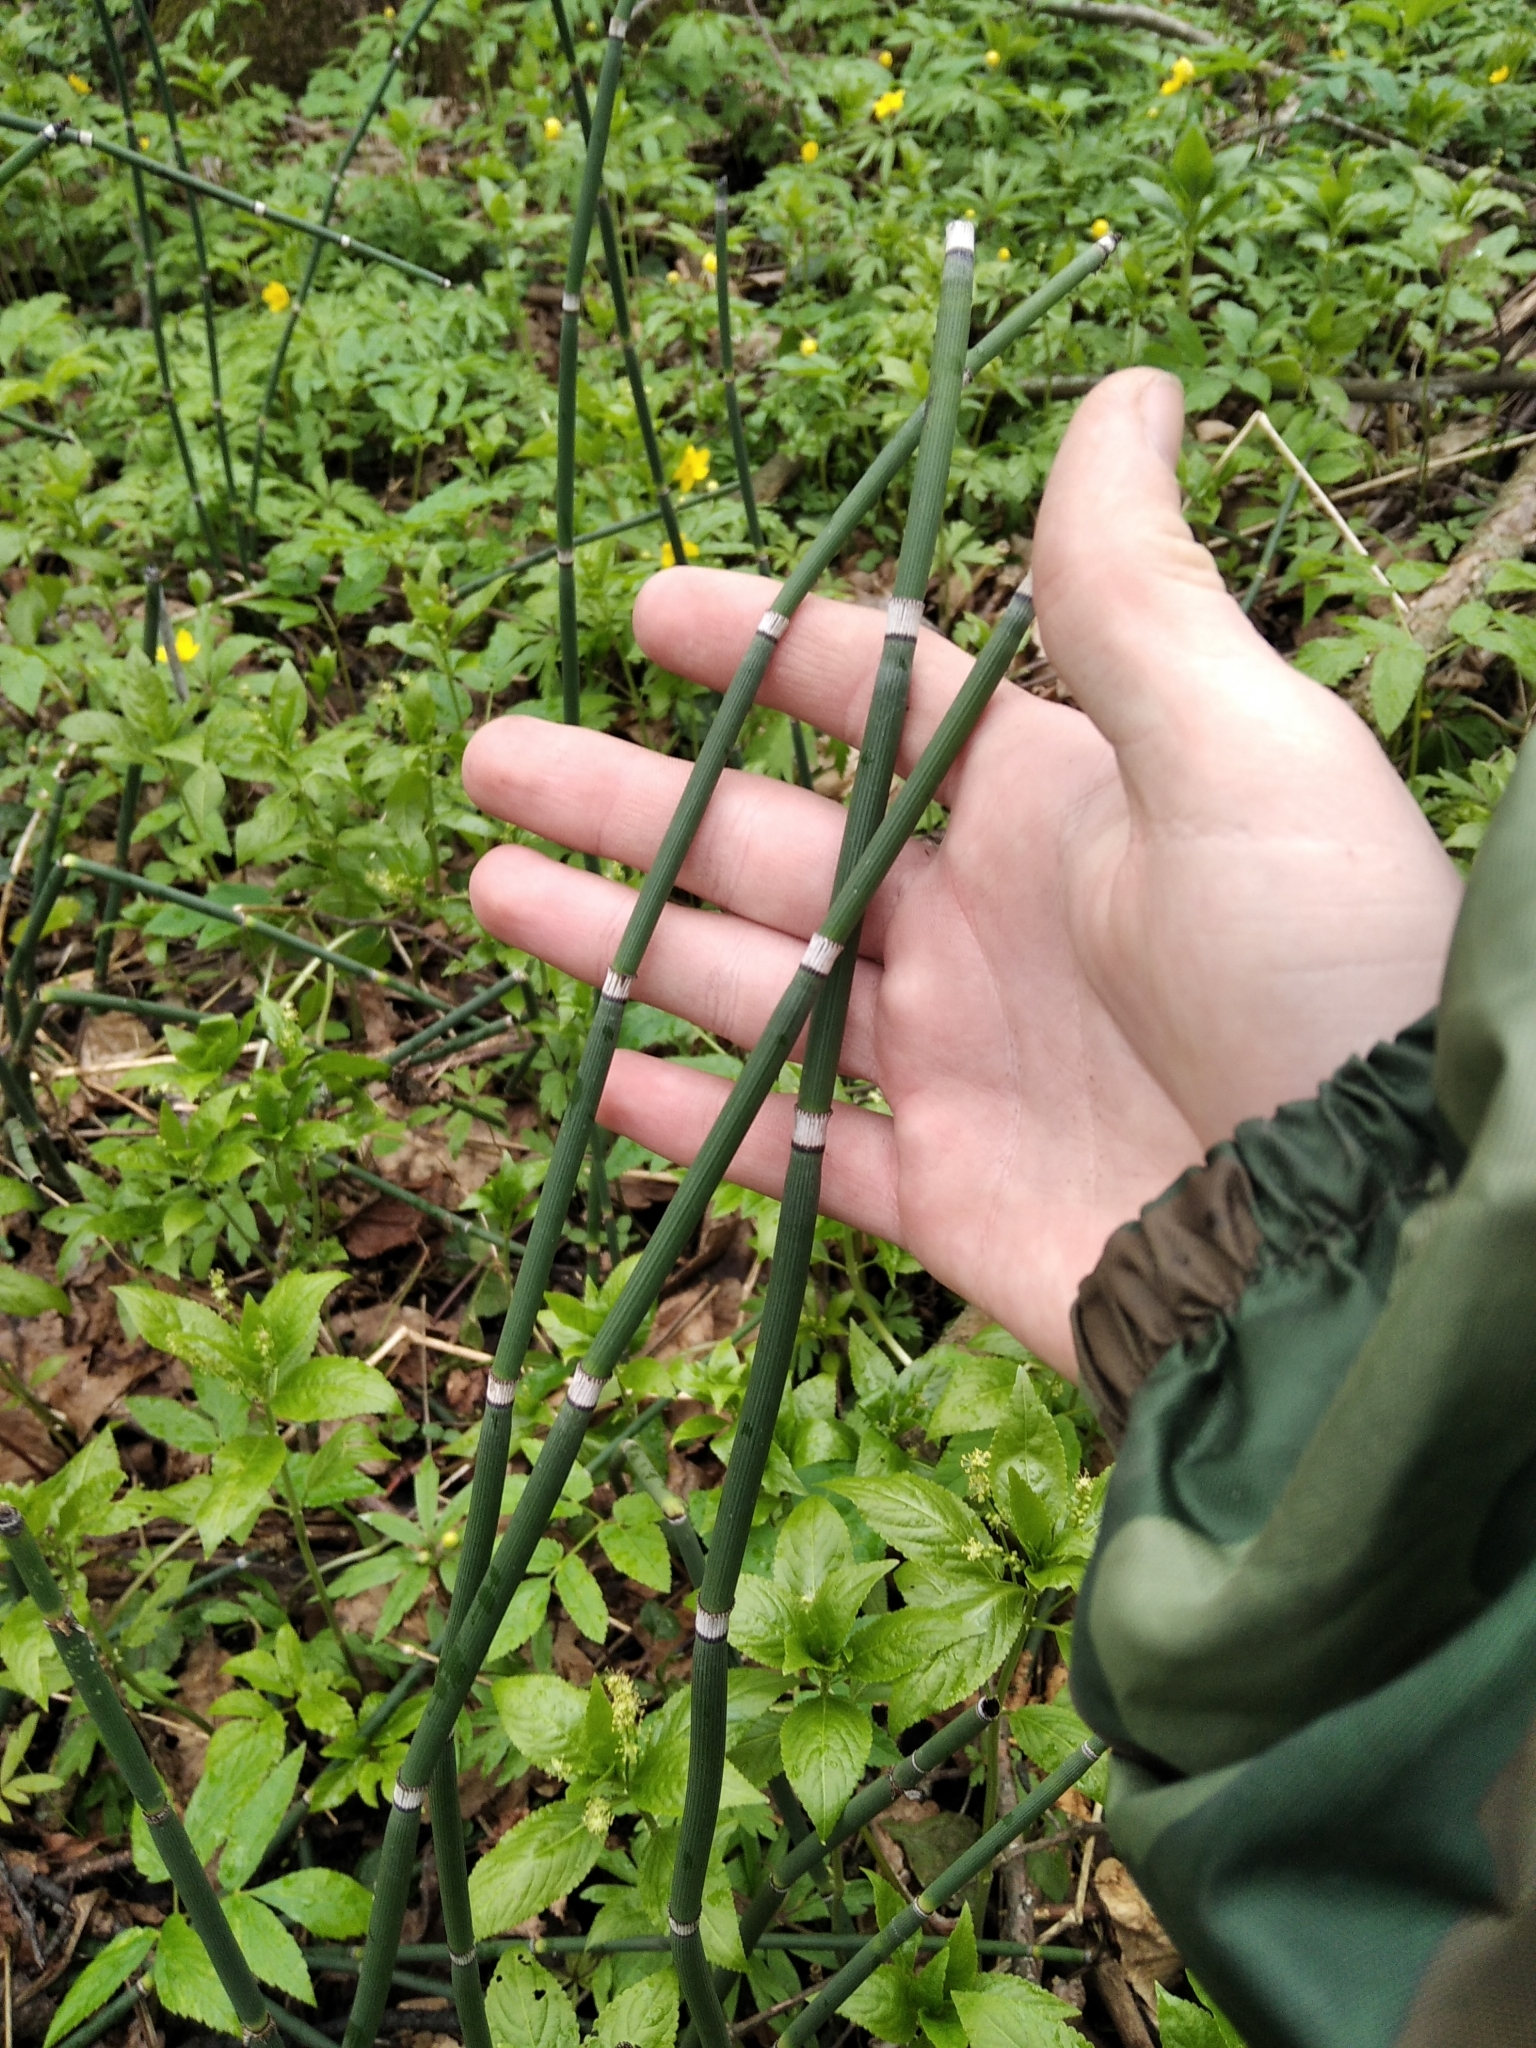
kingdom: Plantae
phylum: Tracheophyta
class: Polypodiopsida
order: Equisetales
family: Equisetaceae
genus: Equisetum
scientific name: Equisetum hyemale
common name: Rough horsetail
